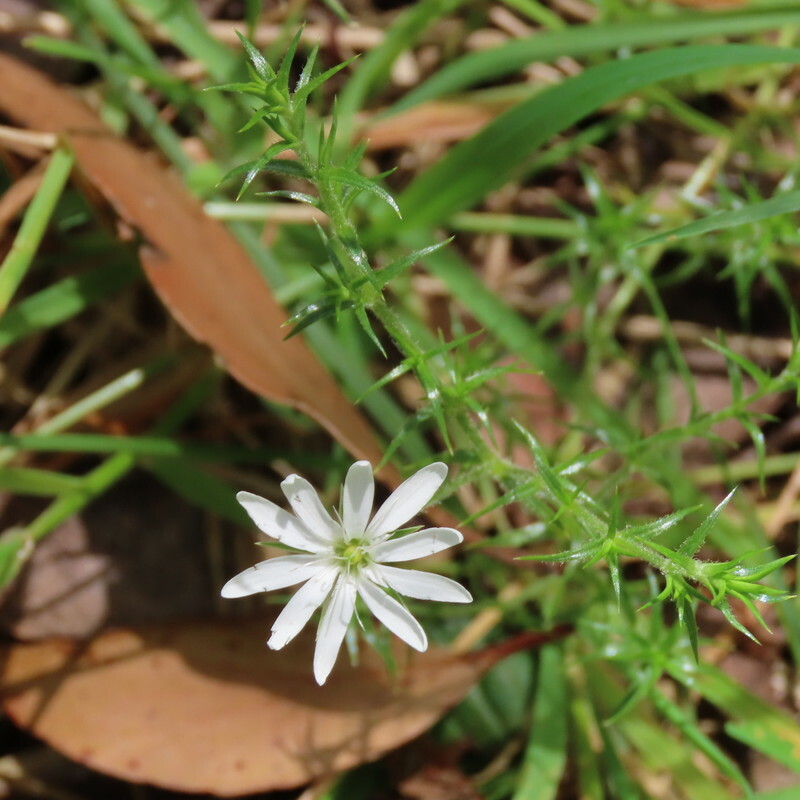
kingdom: Plantae
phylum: Tracheophyta
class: Magnoliopsida
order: Caryophyllales
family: Caryophyllaceae
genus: Stellaria
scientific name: Stellaria pungens
